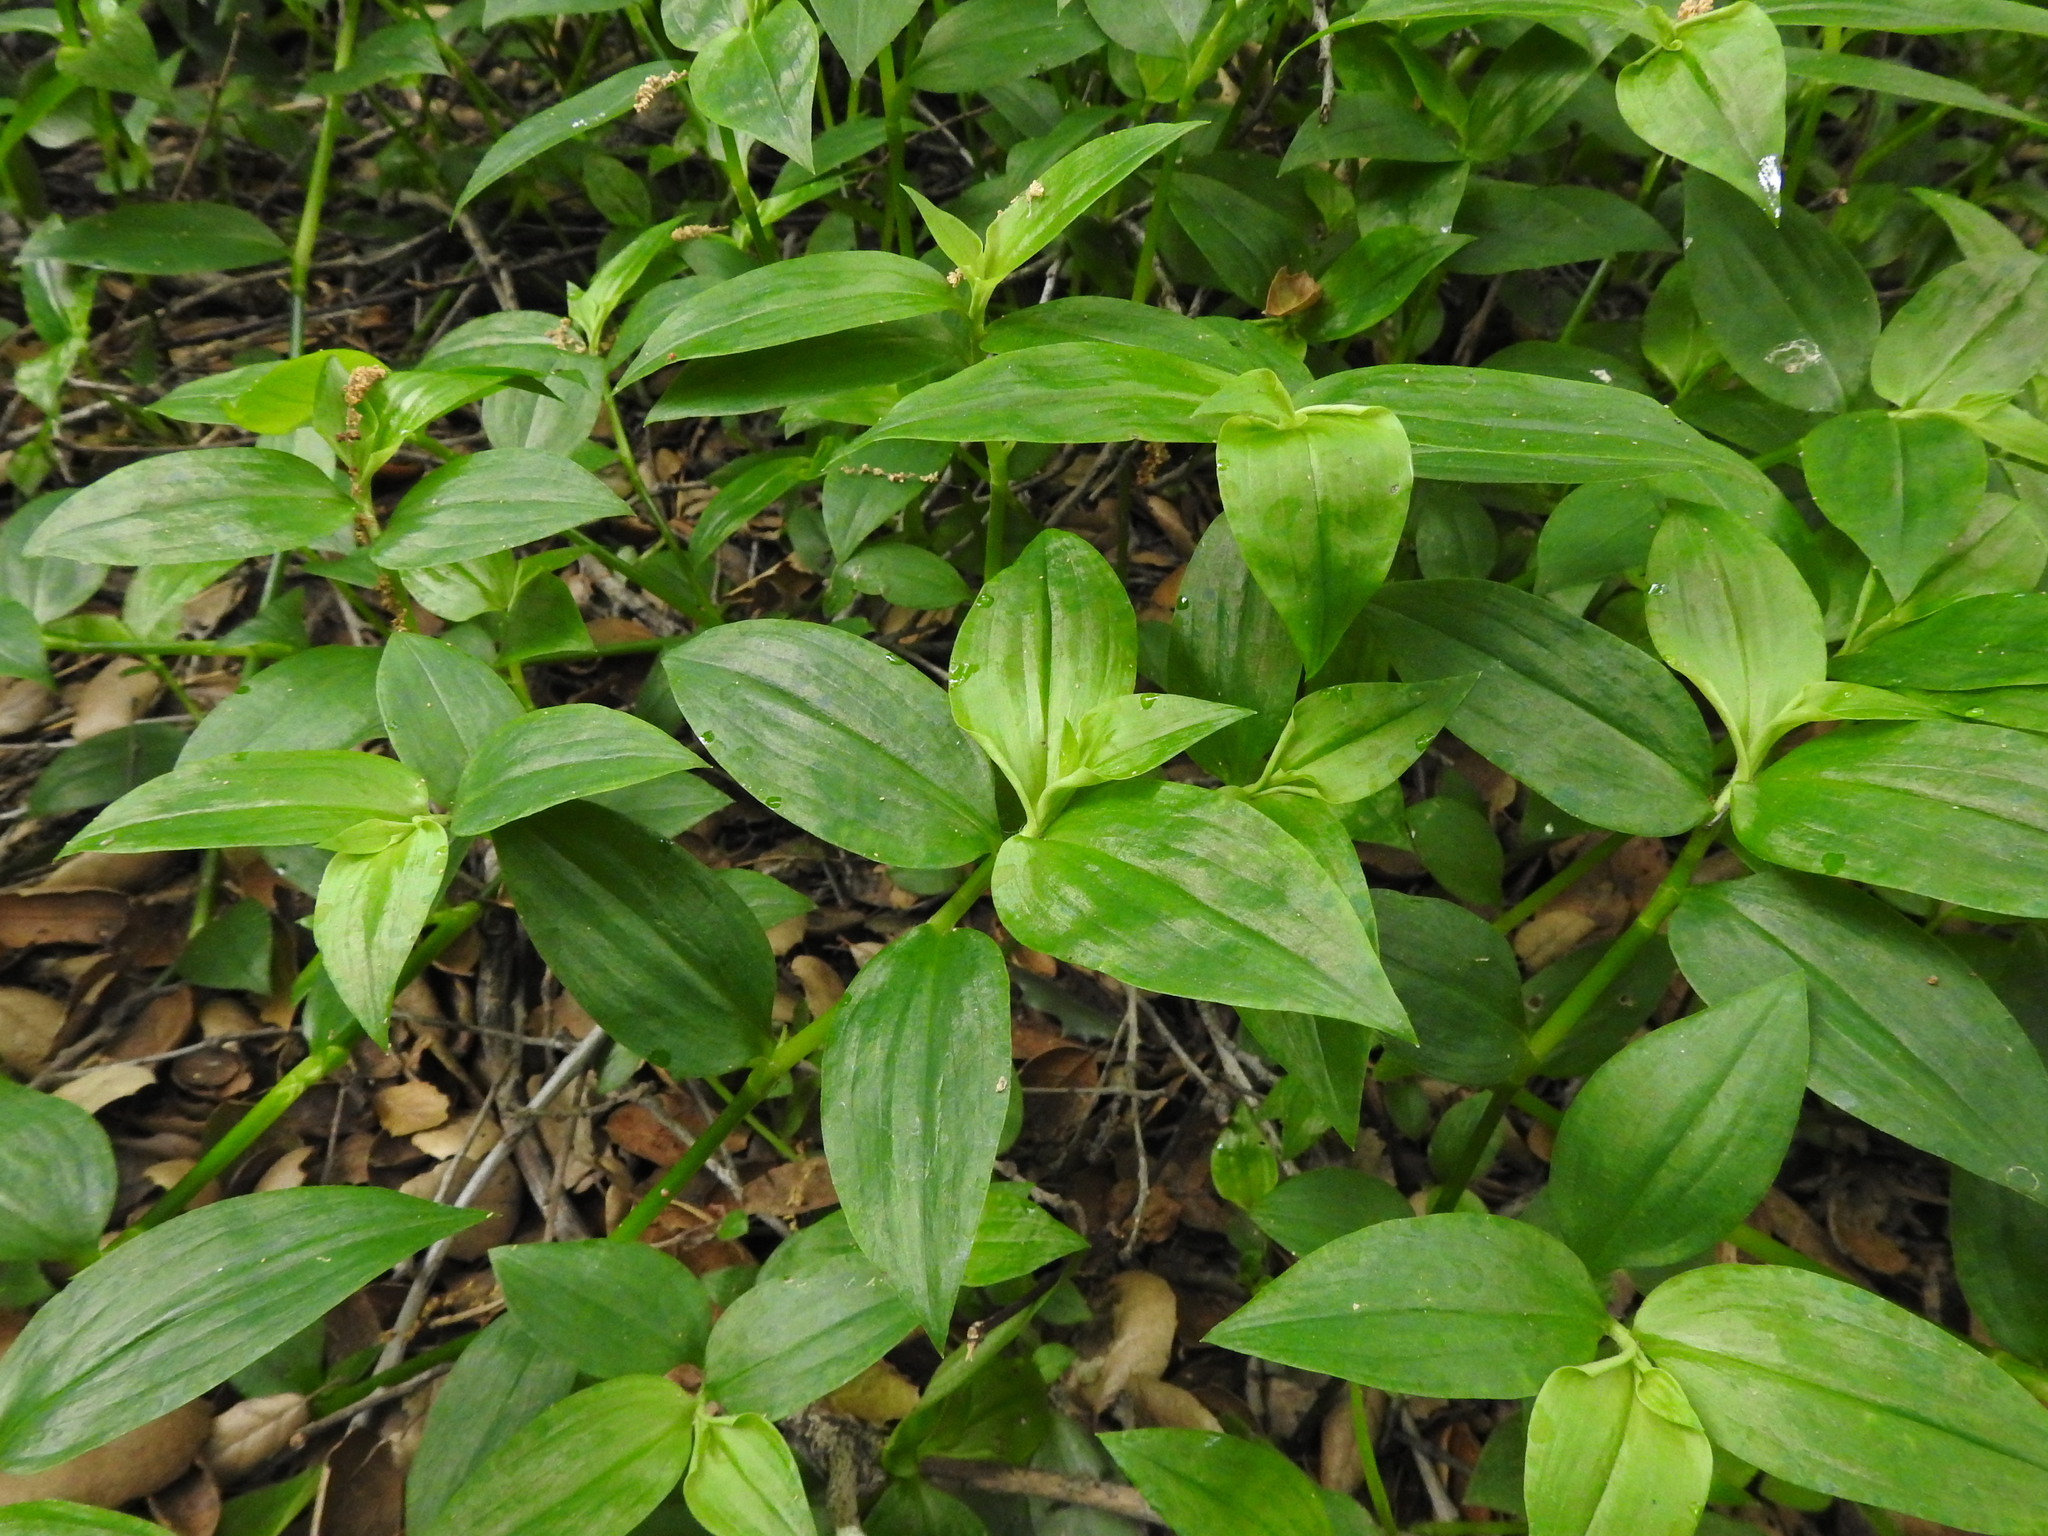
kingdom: Plantae
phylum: Tracheophyta
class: Liliopsida
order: Commelinales
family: Commelinaceae
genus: Tradescantia
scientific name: Tradescantia fluminensis
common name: Wandering-jew
